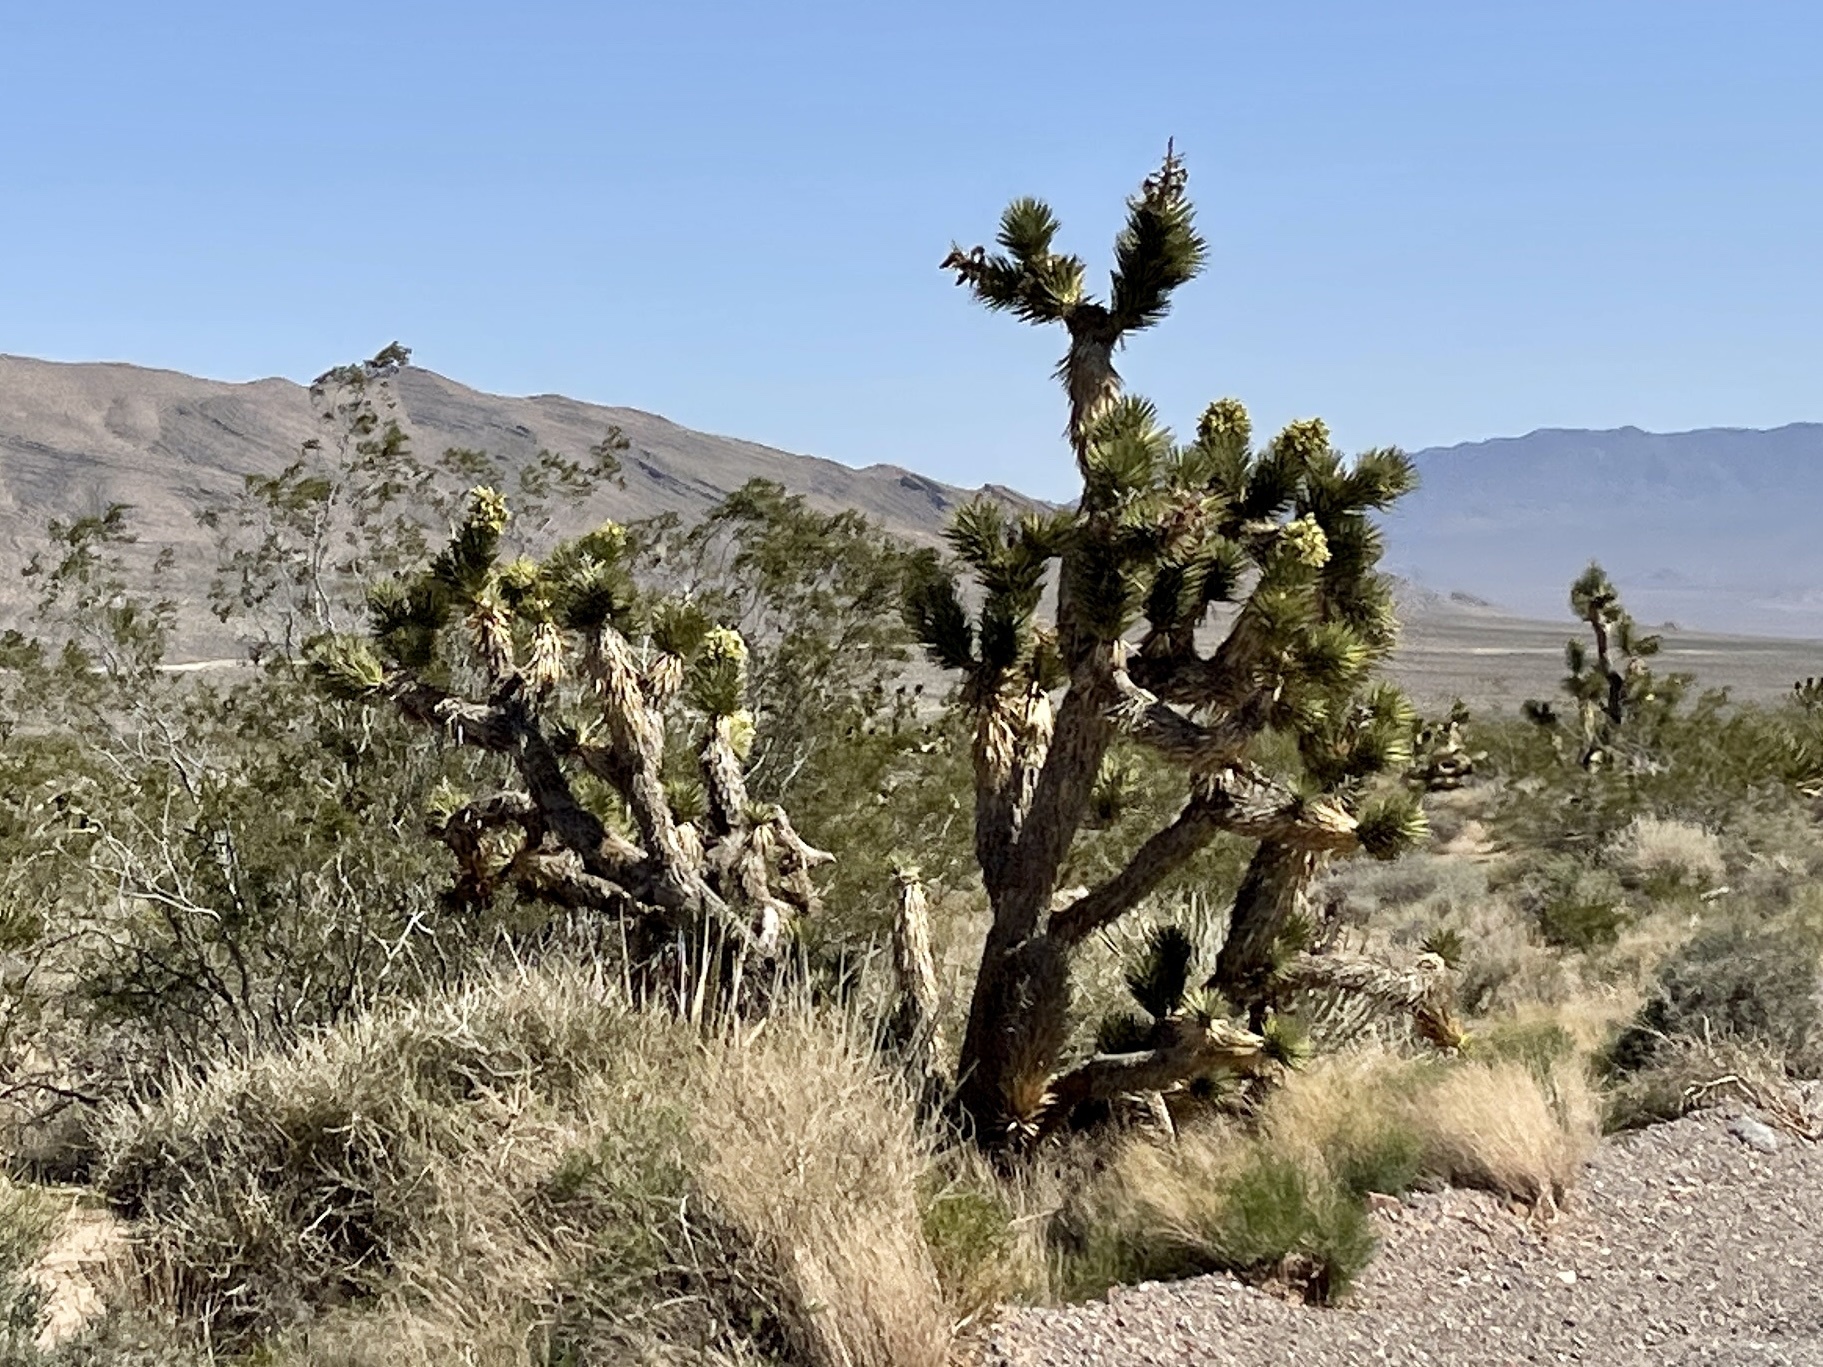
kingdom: Plantae
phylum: Tracheophyta
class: Liliopsida
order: Asparagales
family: Asparagaceae
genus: Yucca
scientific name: Yucca brevifolia
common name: Joshua tree
